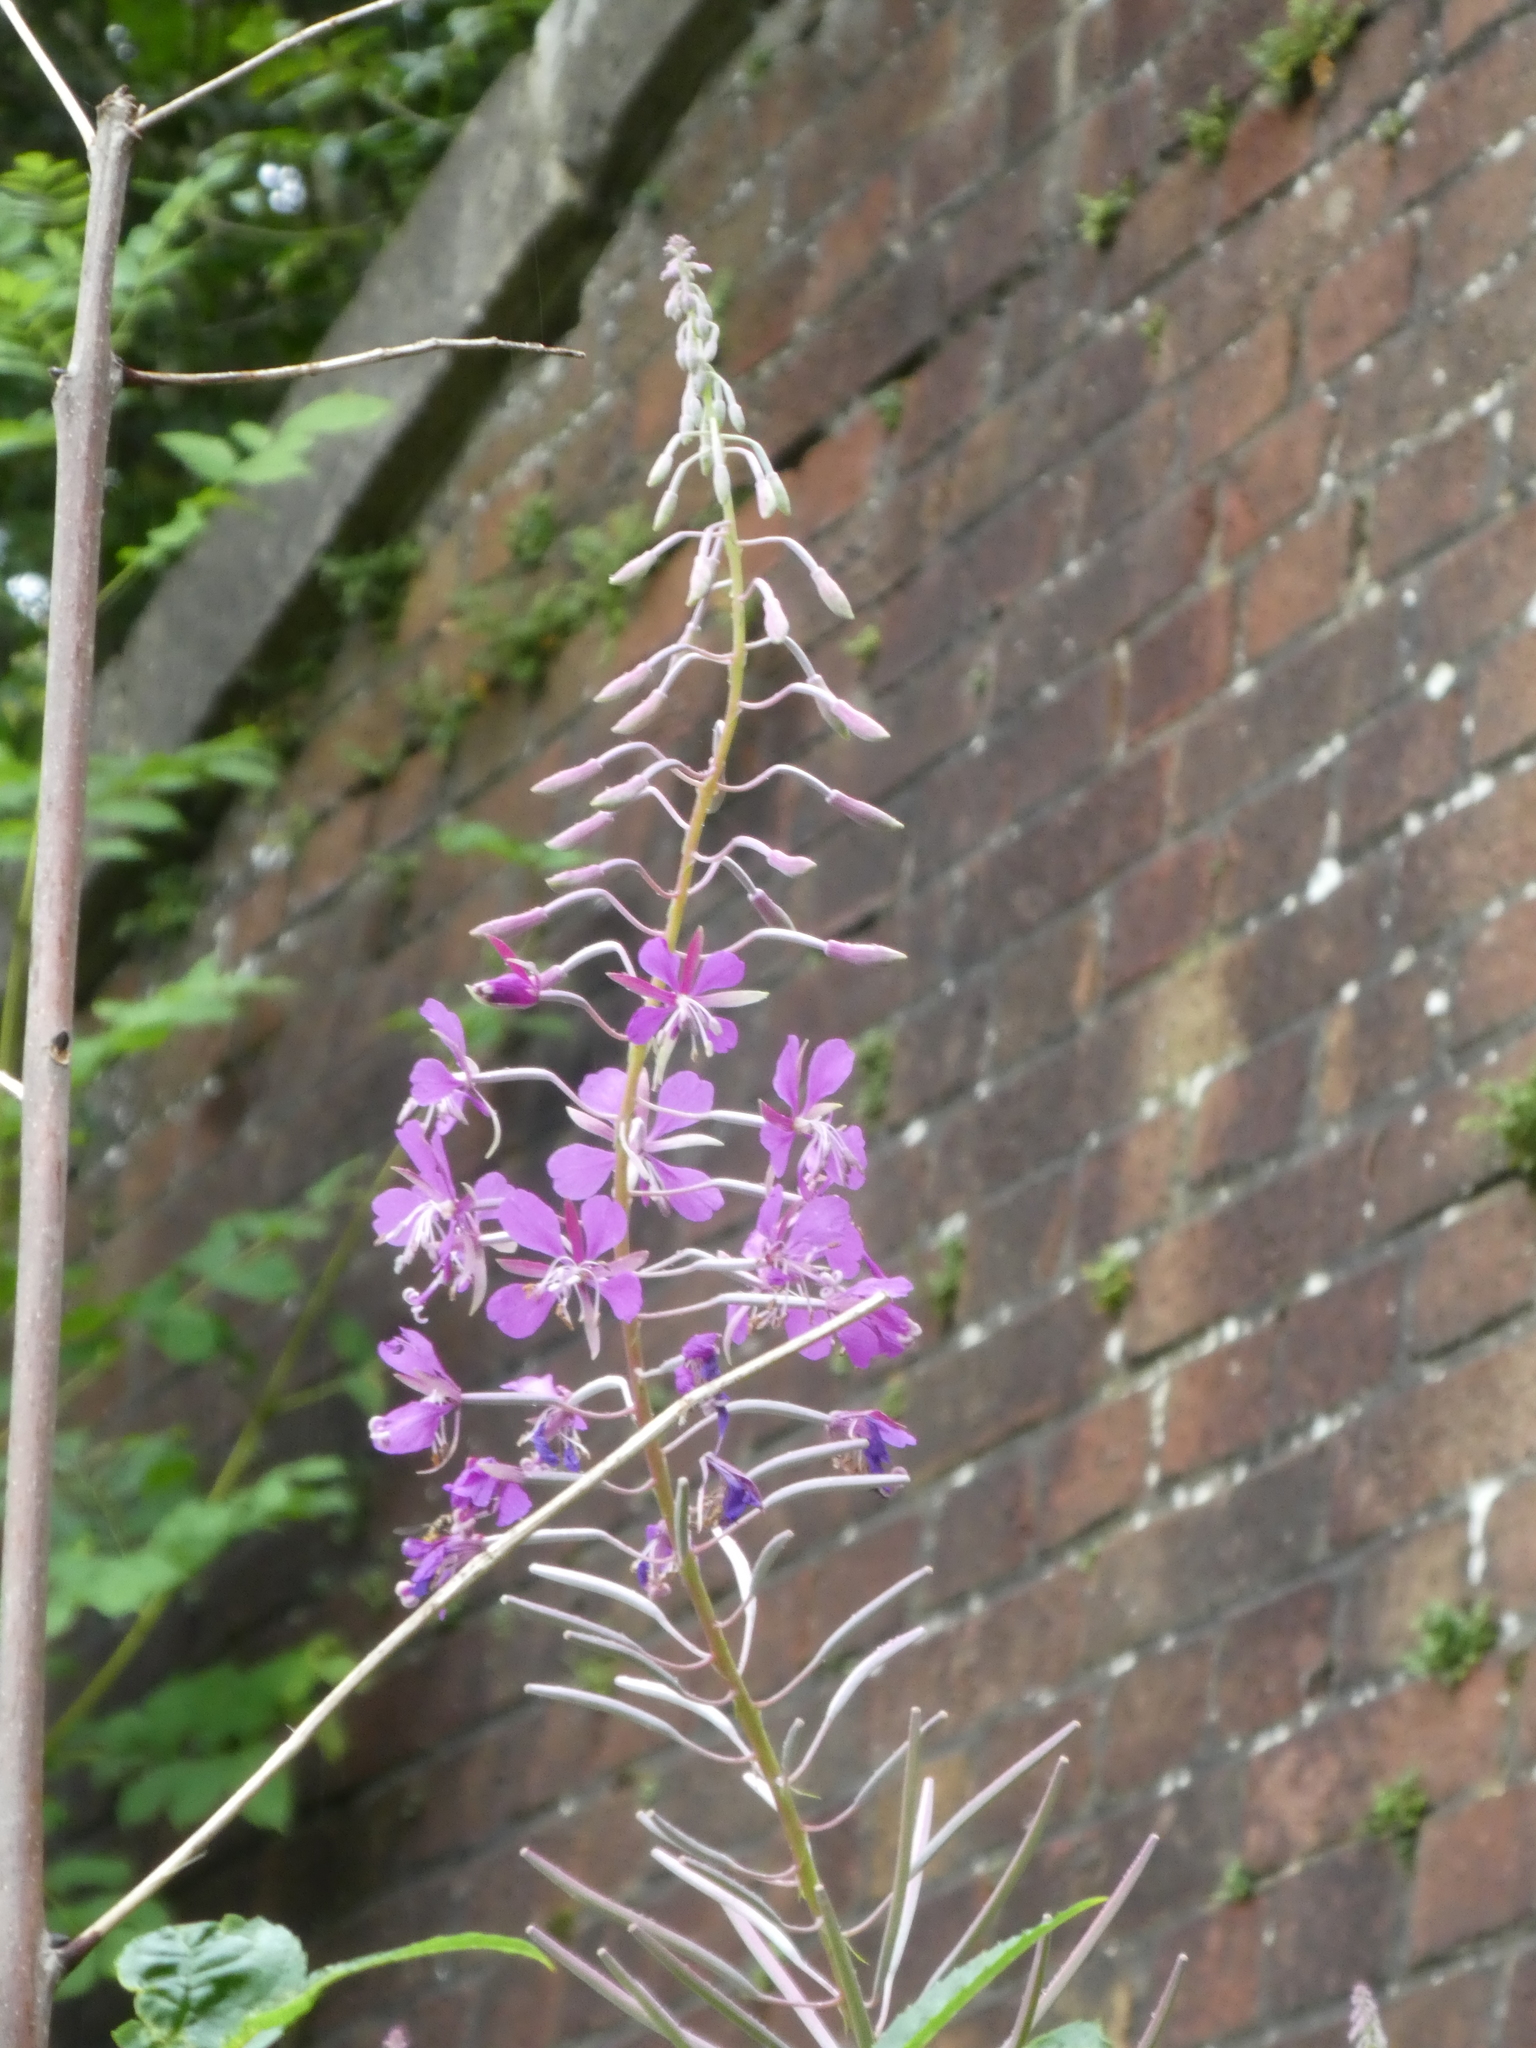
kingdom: Plantae
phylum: Tracheophyta
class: Magnoliopsida
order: Myrtales
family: Onagraceae
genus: Chamaenerion
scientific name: Chamaenerion angustifolium
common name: Fireweed
